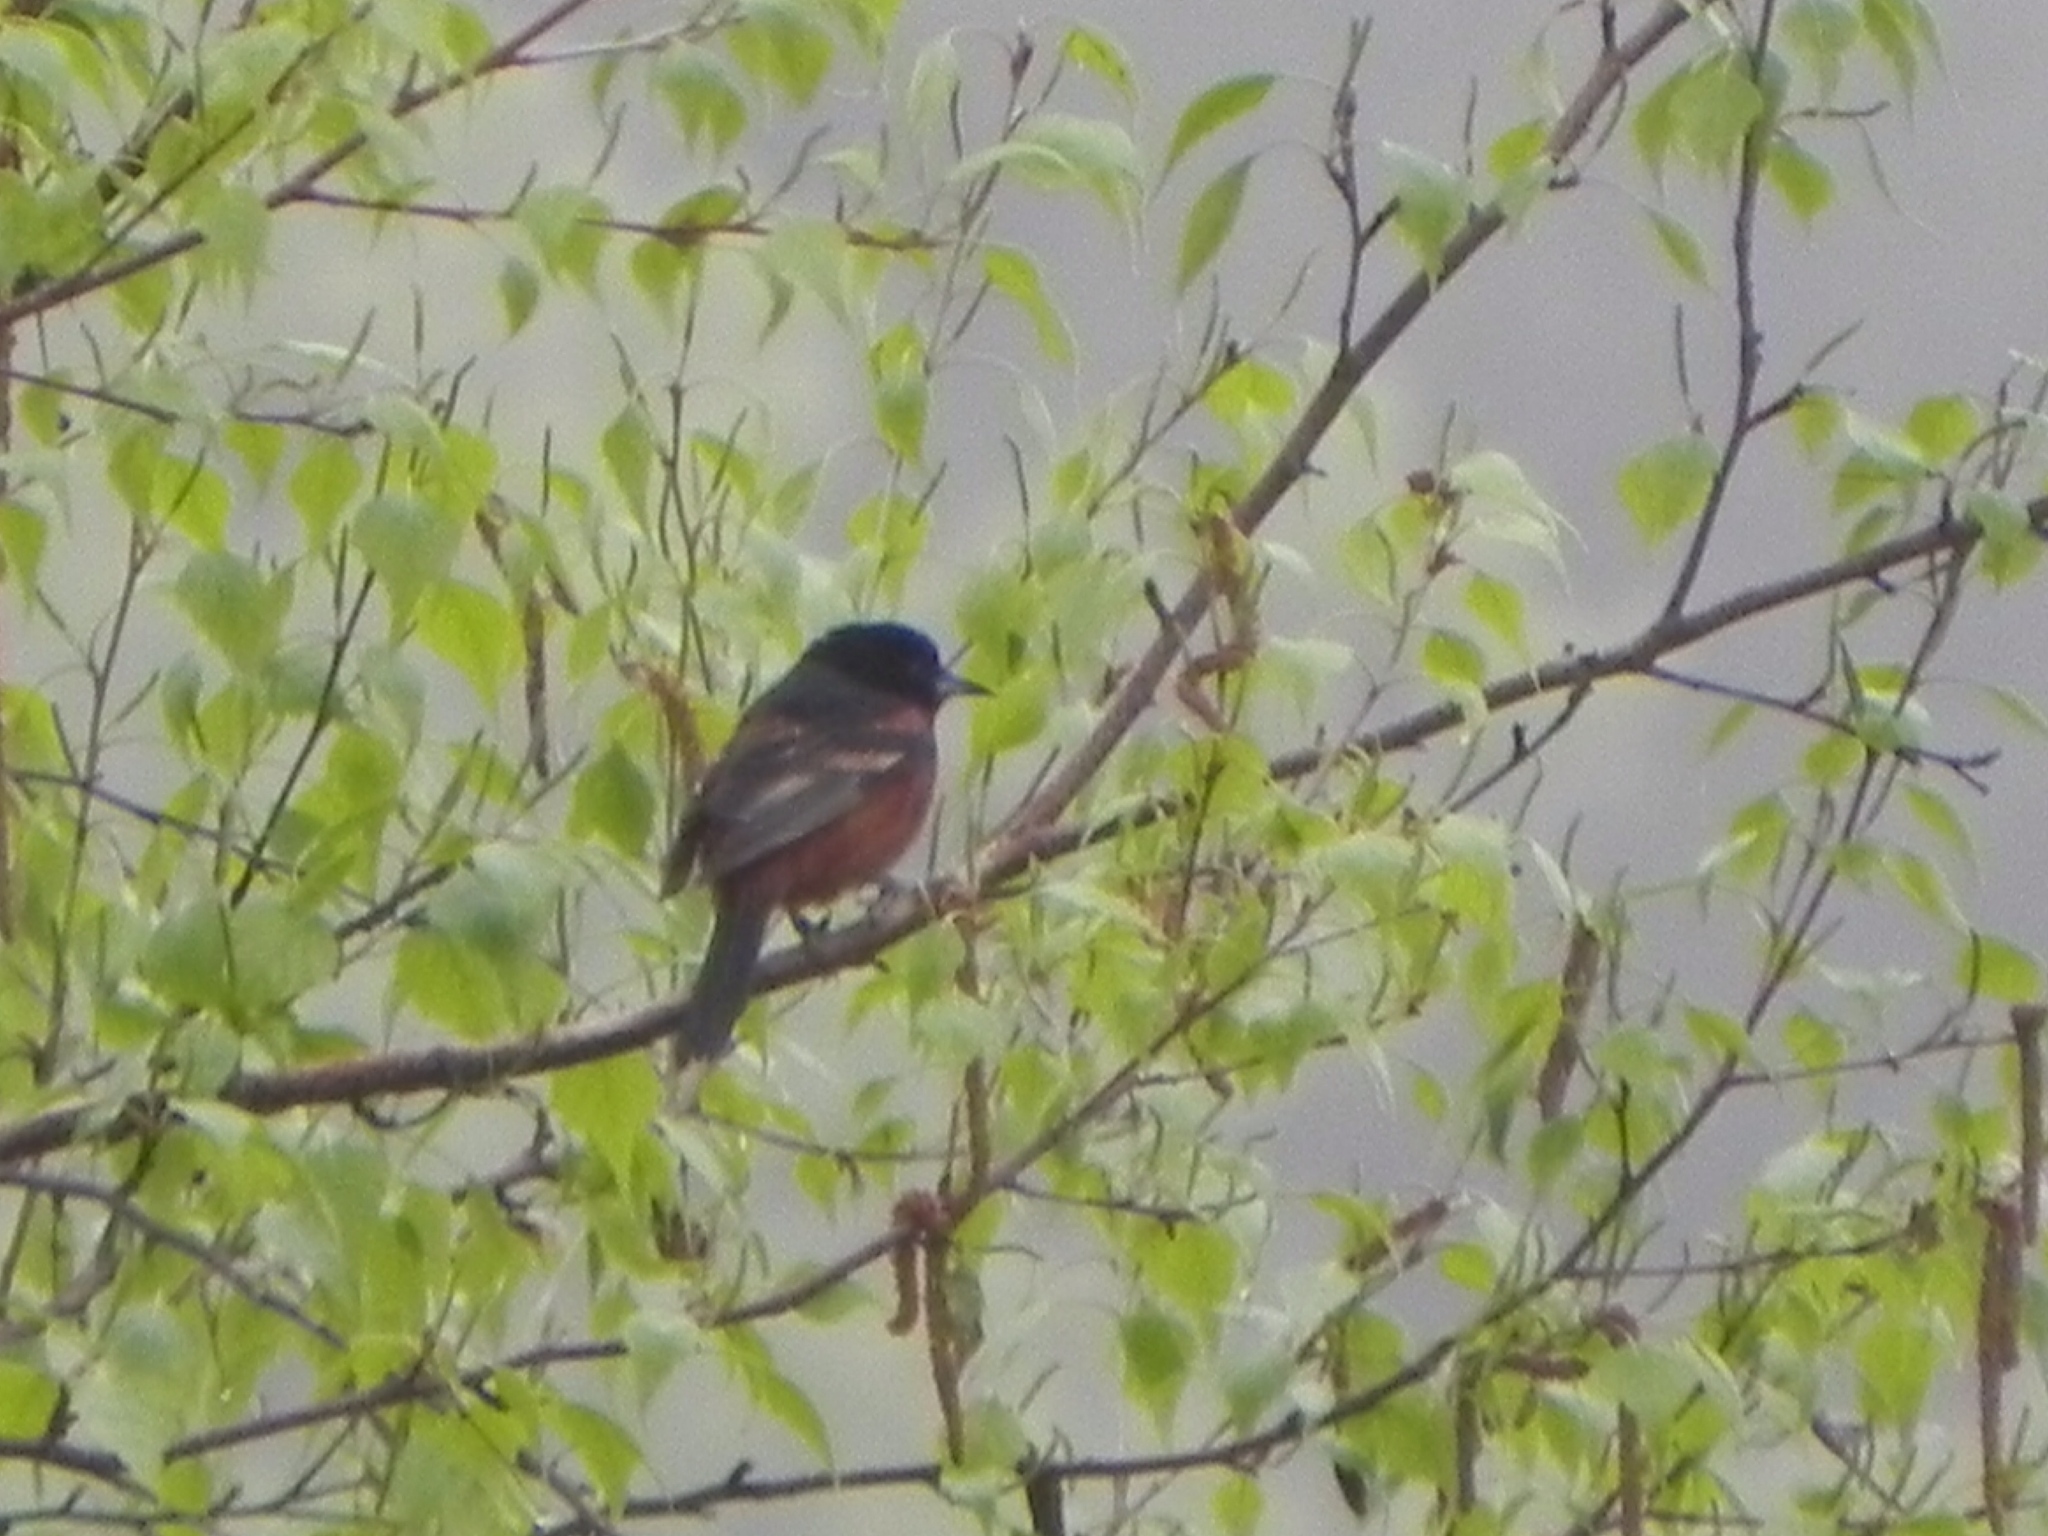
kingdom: Animalia
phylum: Chordata
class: Aves
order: Passeriformes
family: Icteridae
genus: Icterus
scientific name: Icterus spurius
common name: Orchard oriole
